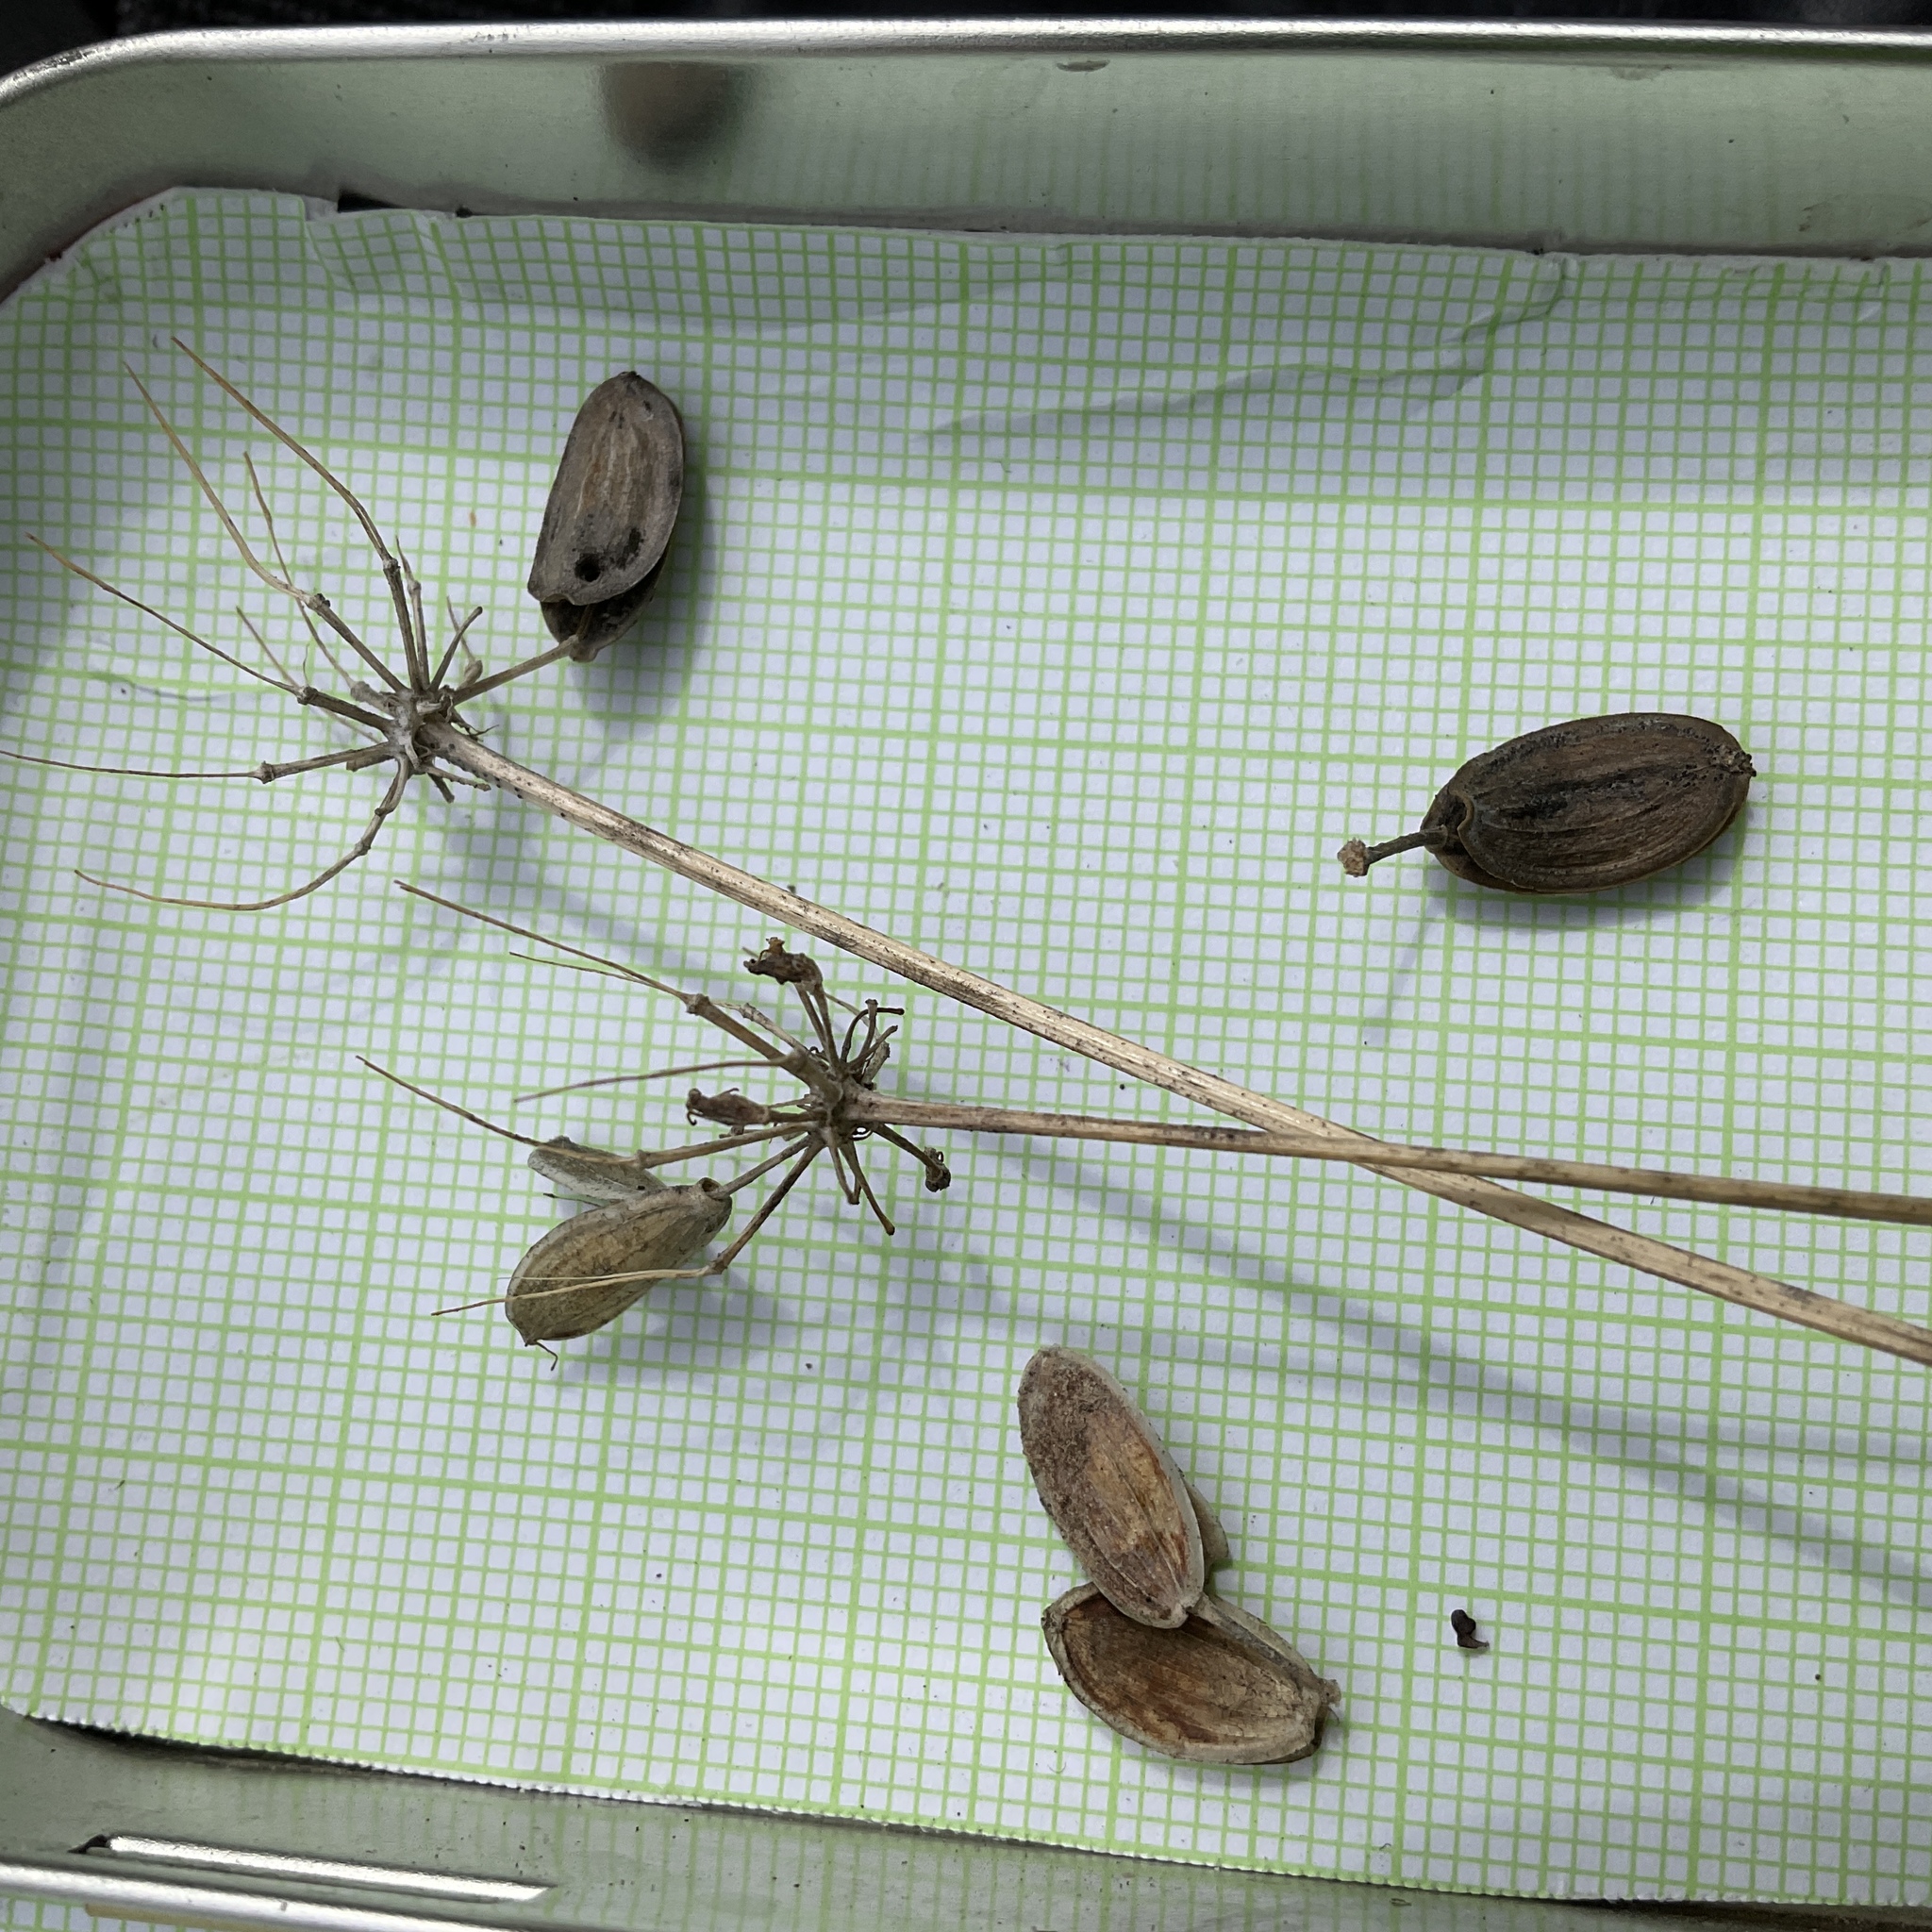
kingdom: Plantae
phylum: Tracheophyta
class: Magnoliopsida
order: Apiales
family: Apiaceae
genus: Lomatium
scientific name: Lomatium multifidum
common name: Carrot-leaved biscuitroot
